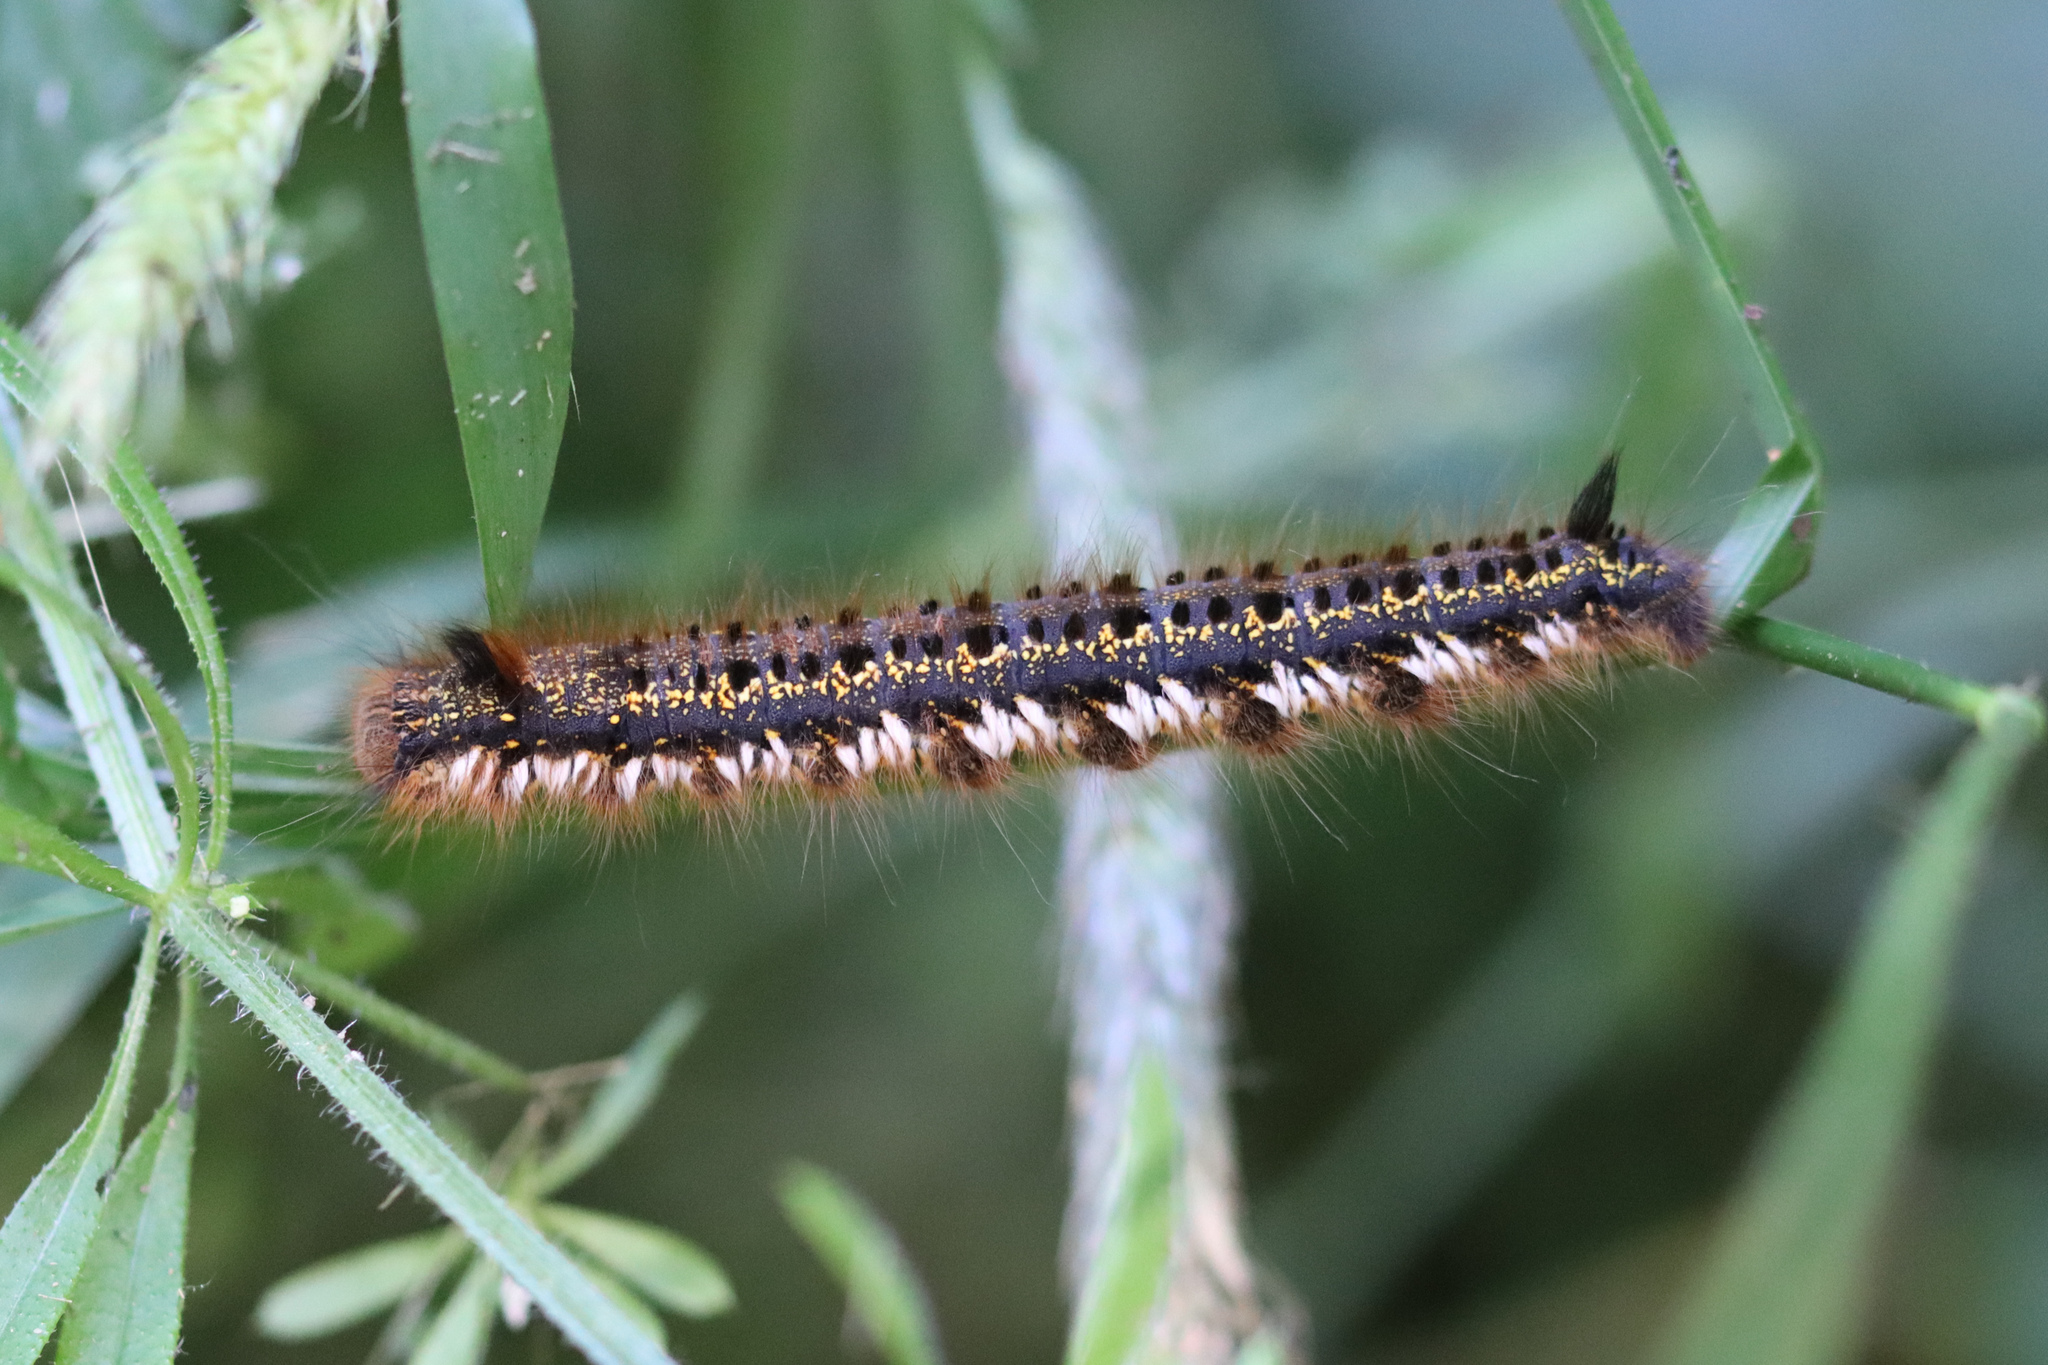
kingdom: Animalia
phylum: Arthropoda
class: Insecta
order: Lepidoptera
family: Lasiocampidae
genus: Euthrix
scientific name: Euthrix potatoria
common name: Drinker
